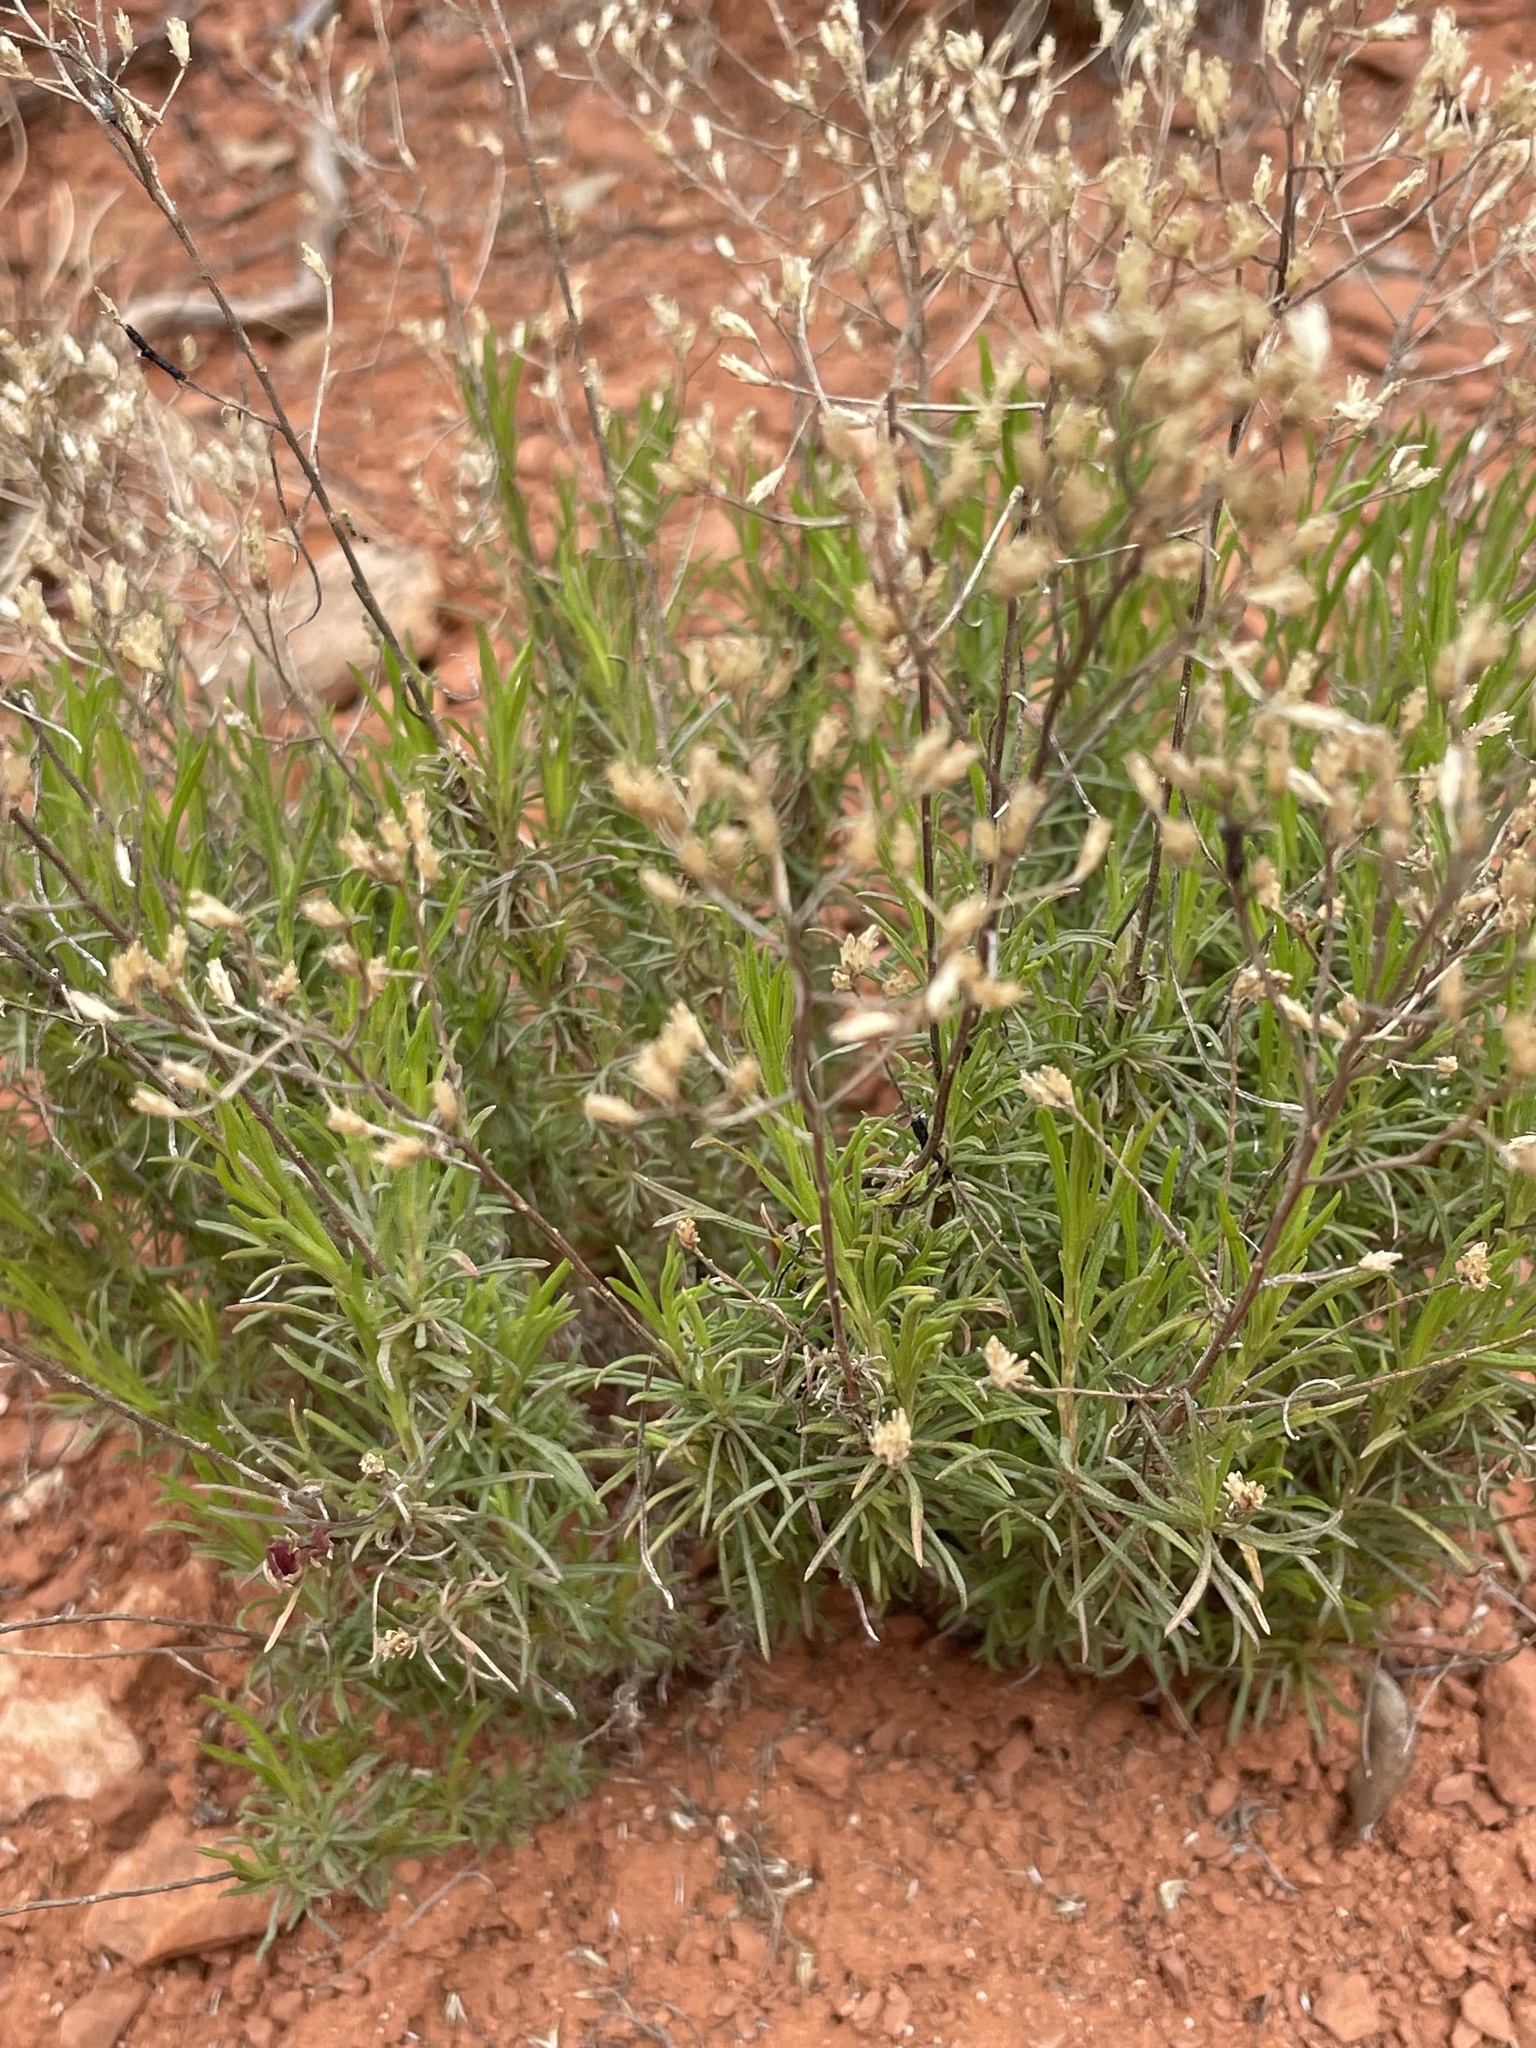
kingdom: Plantae
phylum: Tracheophyta
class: Magnoliopsida
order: Asterales
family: Asteraceae
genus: Gutierrezia
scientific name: Gutierrezia sarothrae
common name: Broom snakeweed
